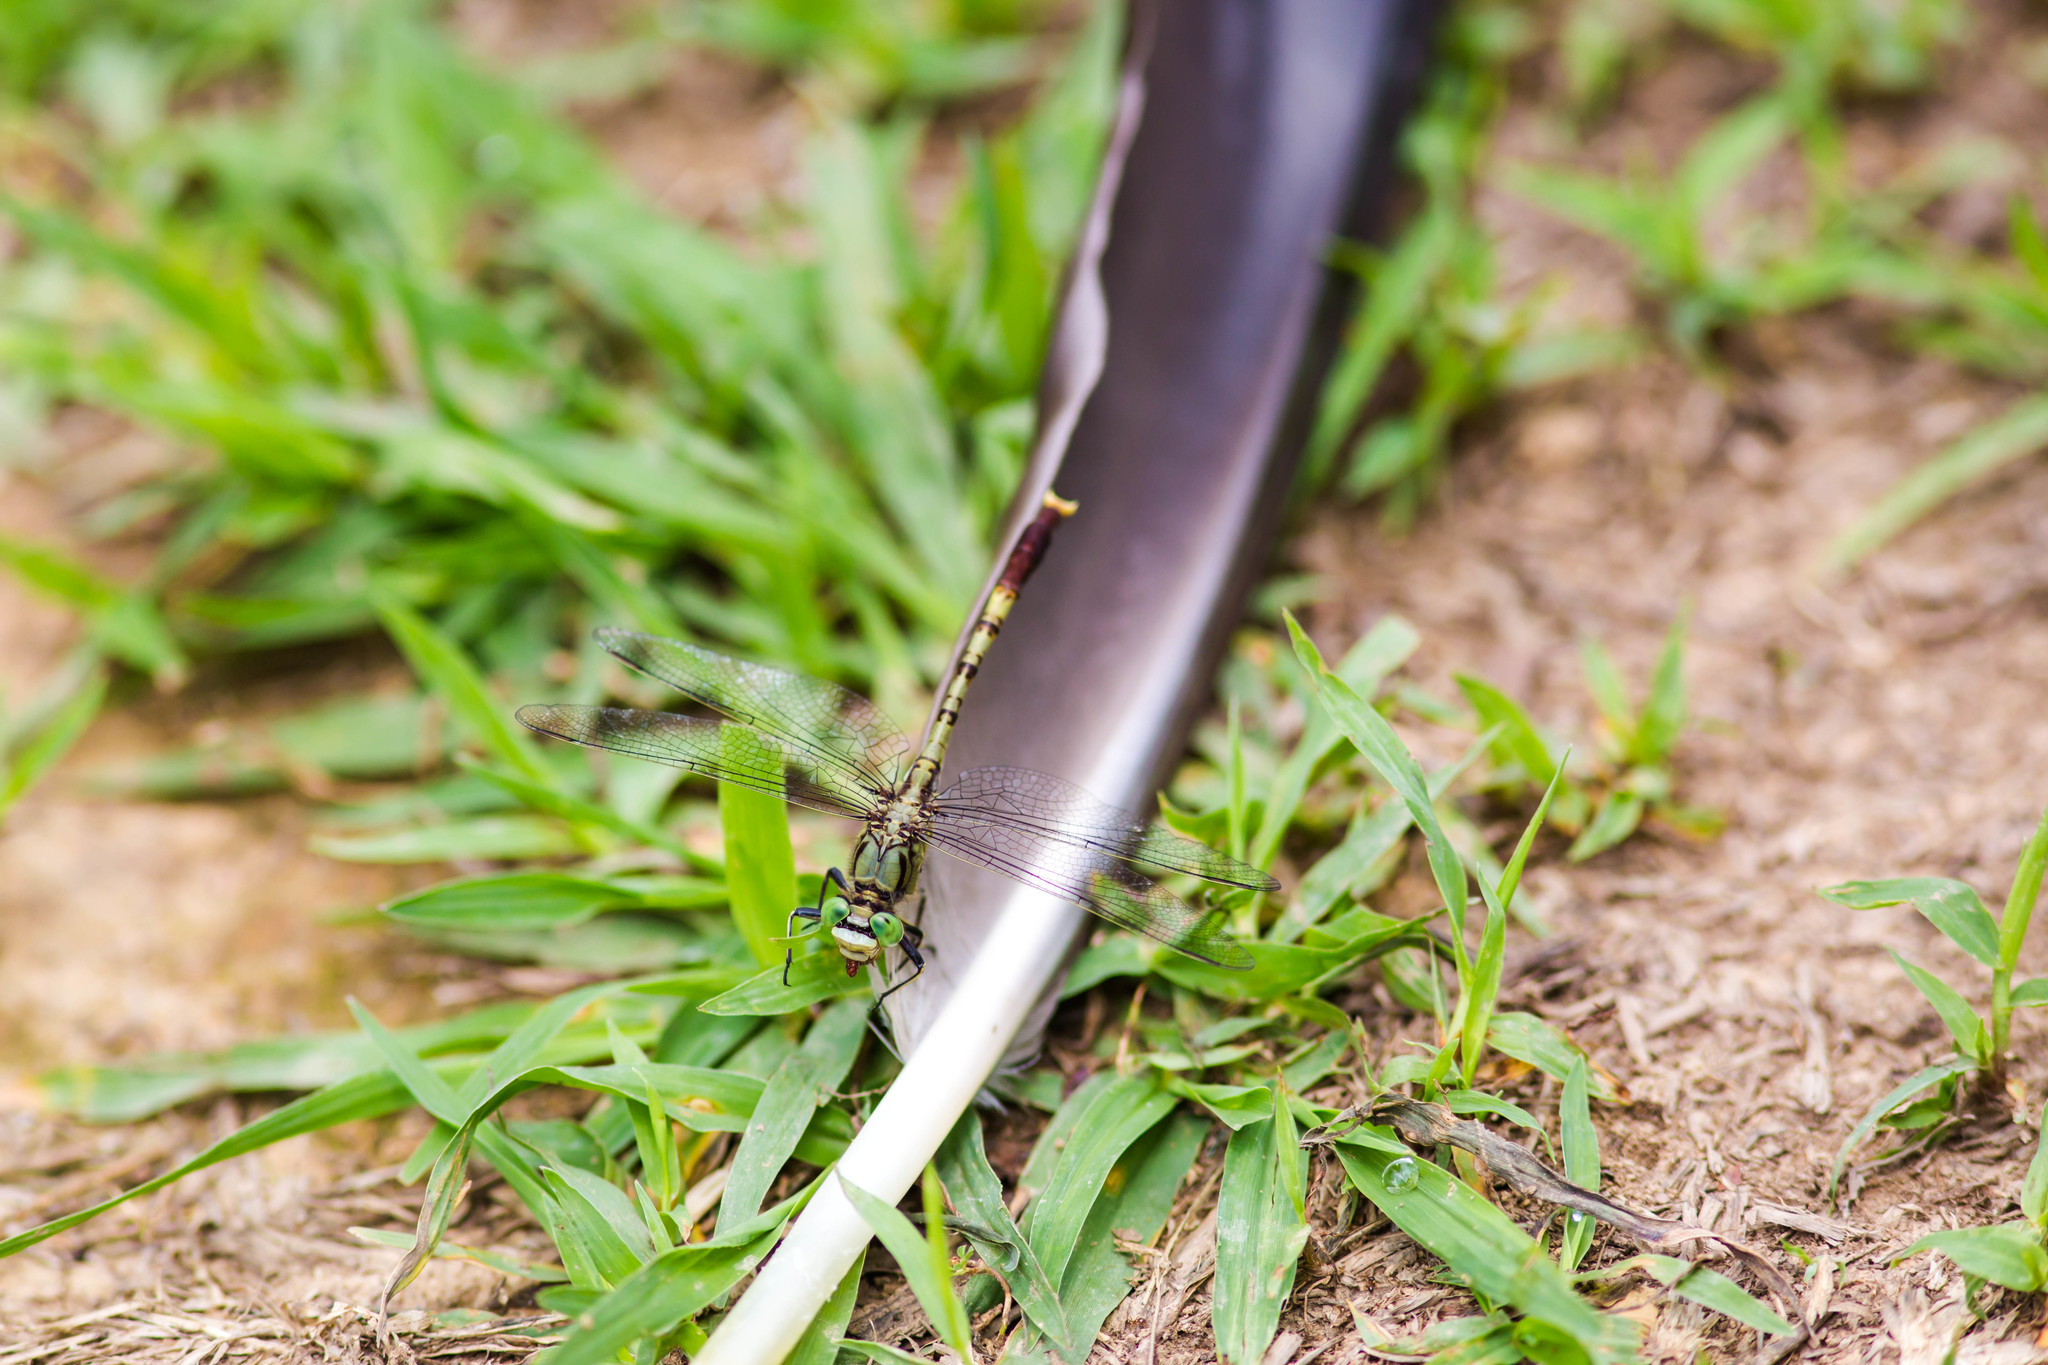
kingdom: Animalia
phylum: Arthropoda
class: Insecta
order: Odonata
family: Gomphidae
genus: Arigomphus
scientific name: Arigomphus submedianus
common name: Jade clubtail
